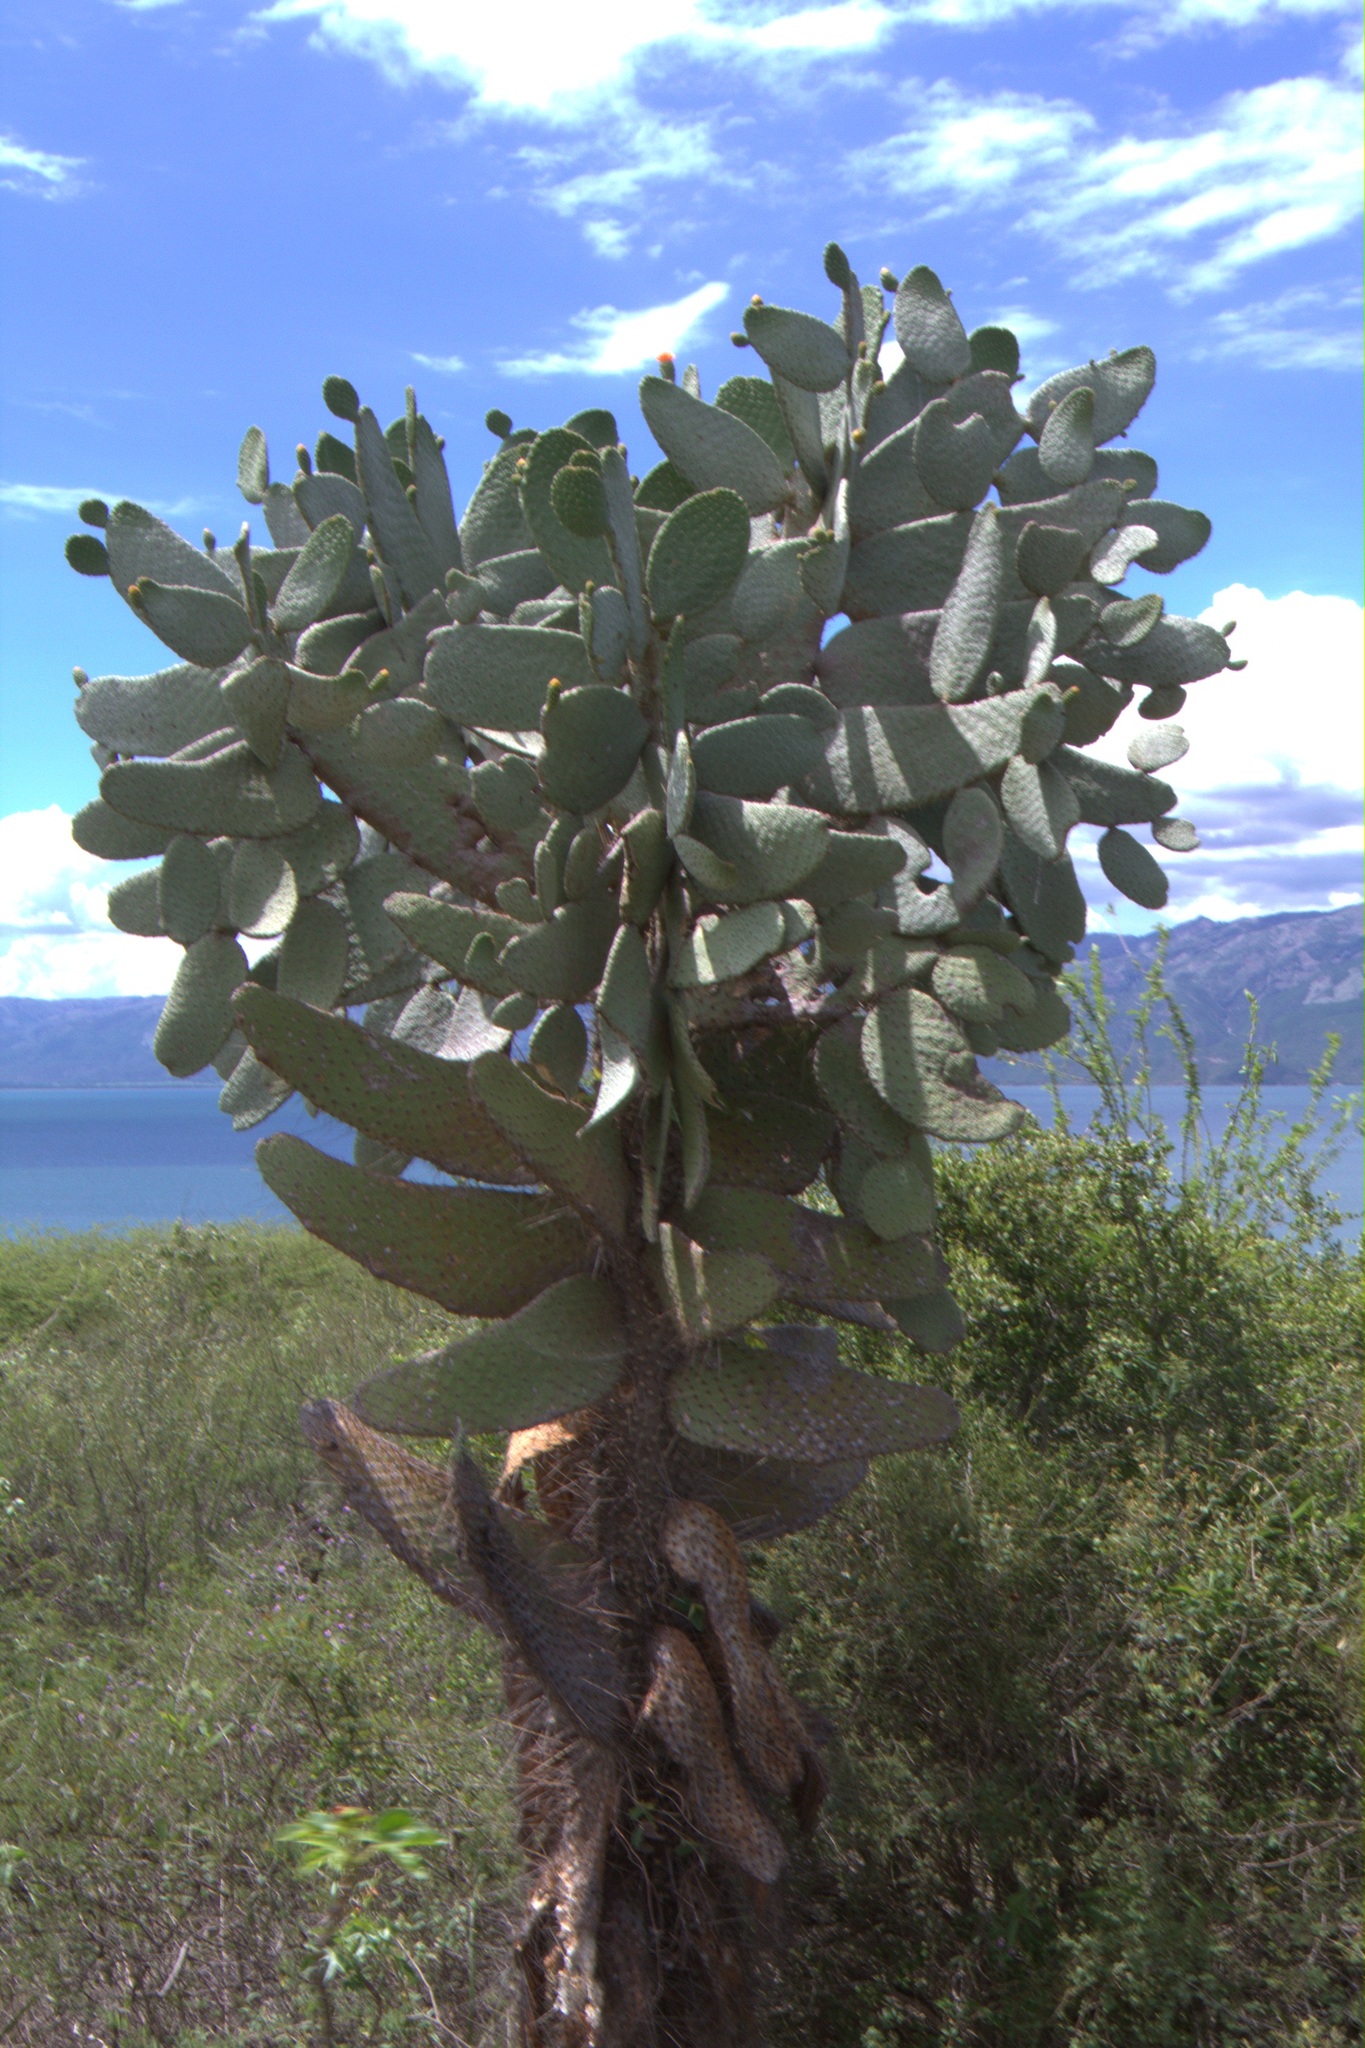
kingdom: Plantae
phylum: Tracheophyta
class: Magnoliopsida
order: Caryophyllales
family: Cactaceae
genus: Consolea
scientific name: Consolea moniliformis
